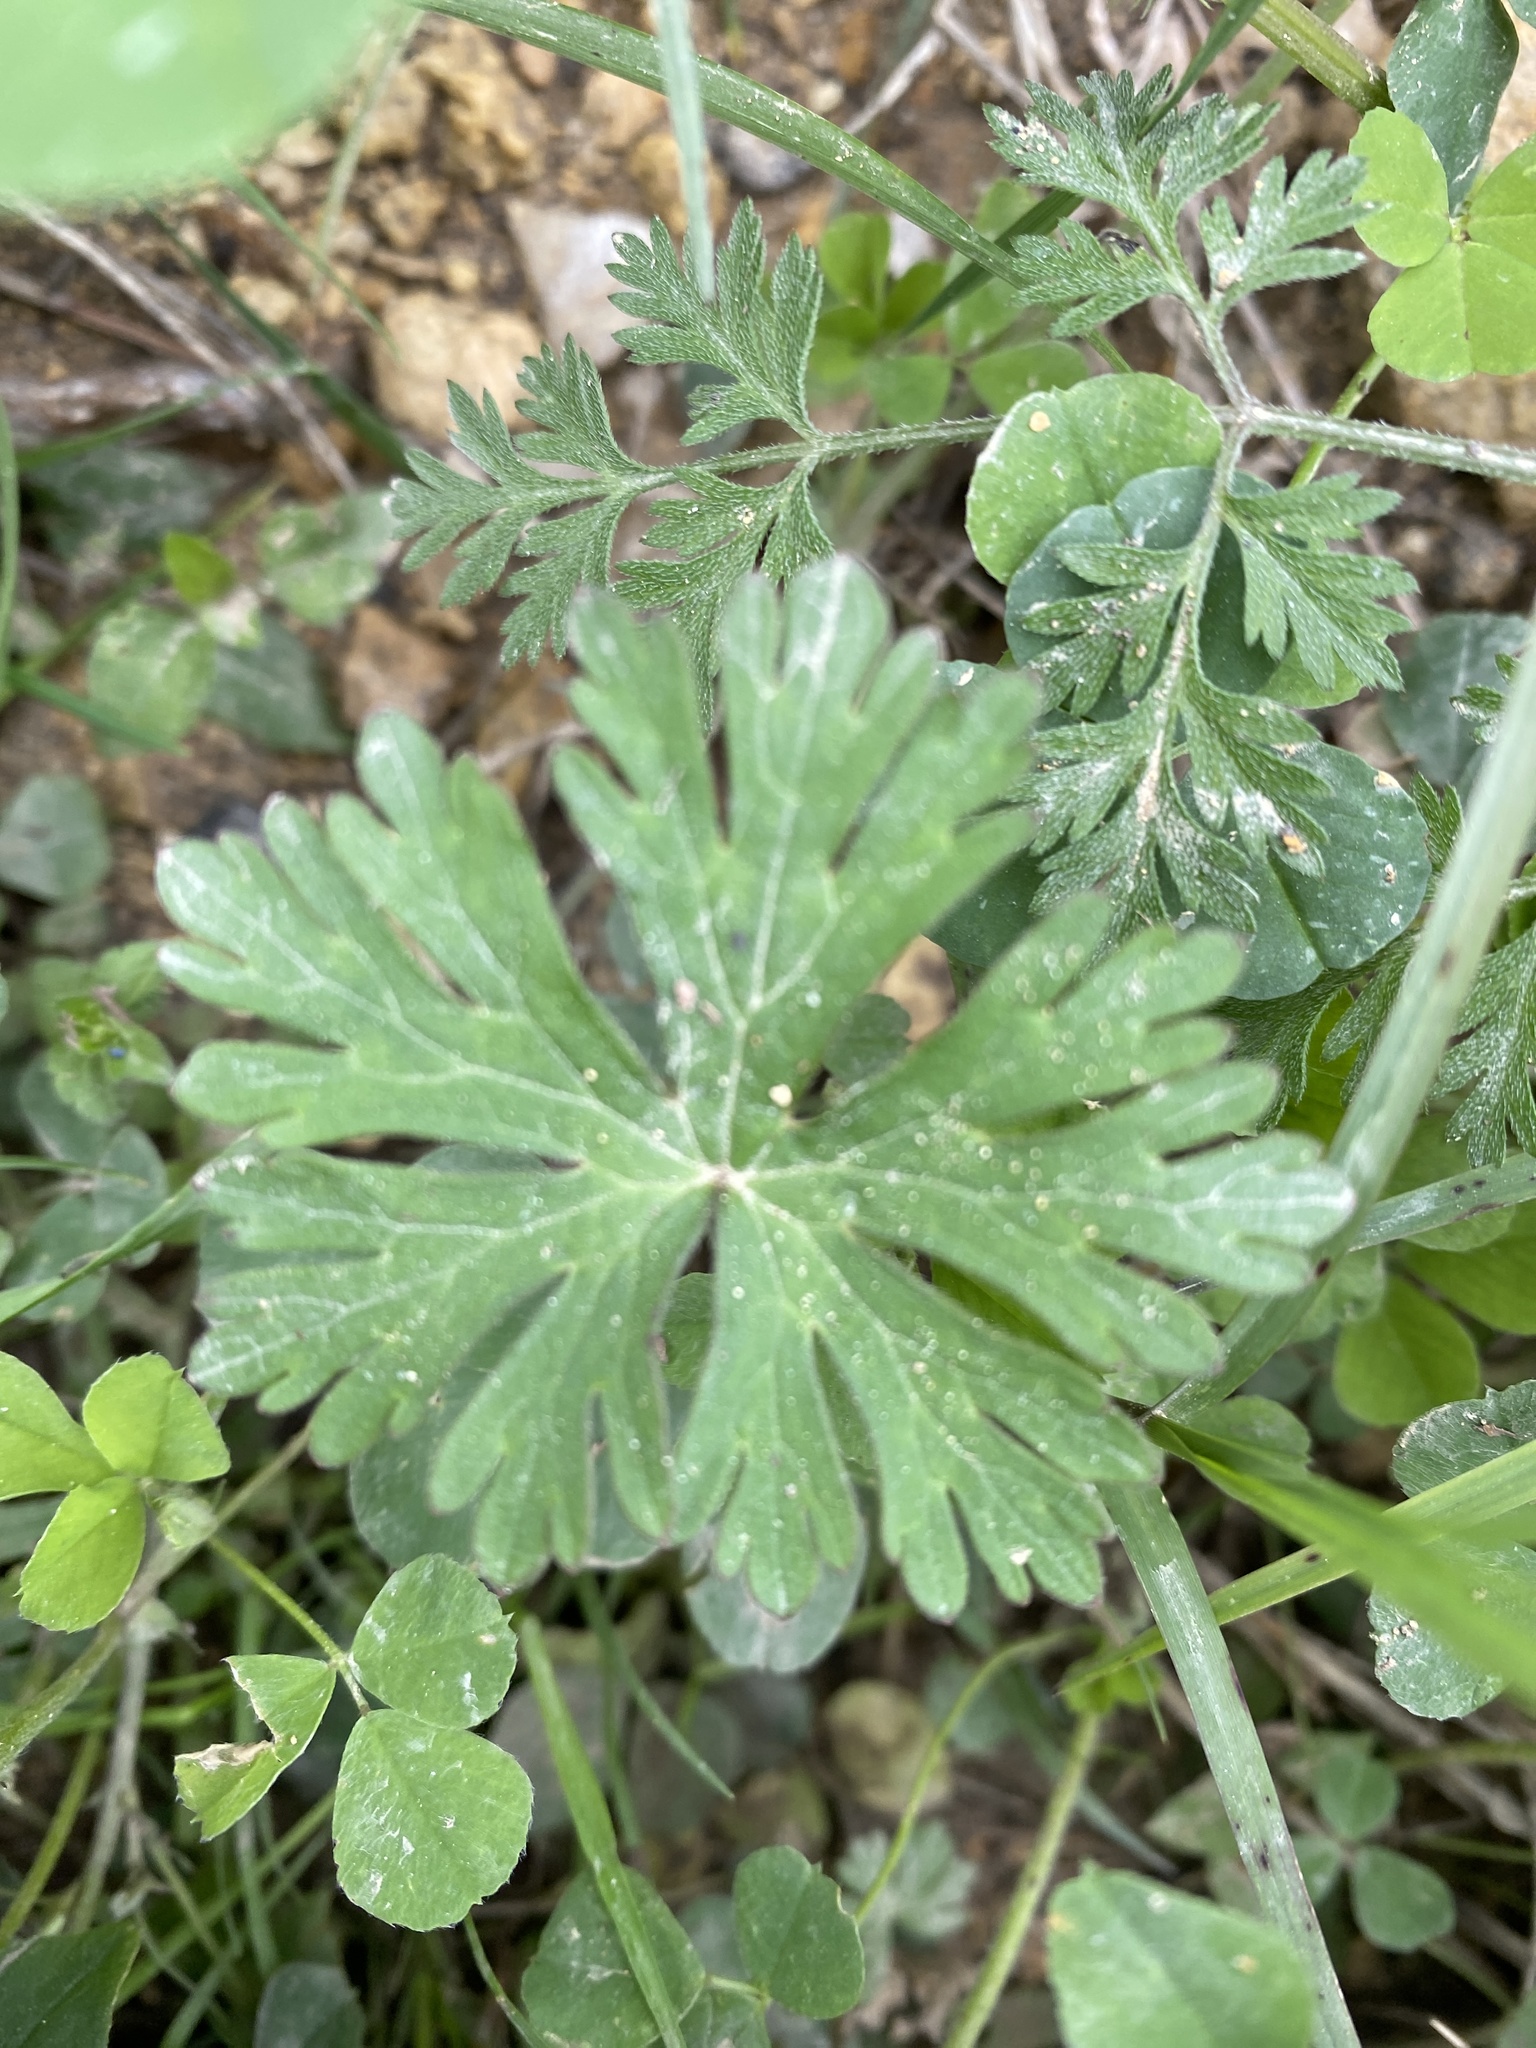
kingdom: Plantae
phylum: Tracheophyta
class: Magnoliopsida
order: Geraniales
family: Geraniaceae
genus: Geranium
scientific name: Geranium carolinianum
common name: Carolina crane's-bill
